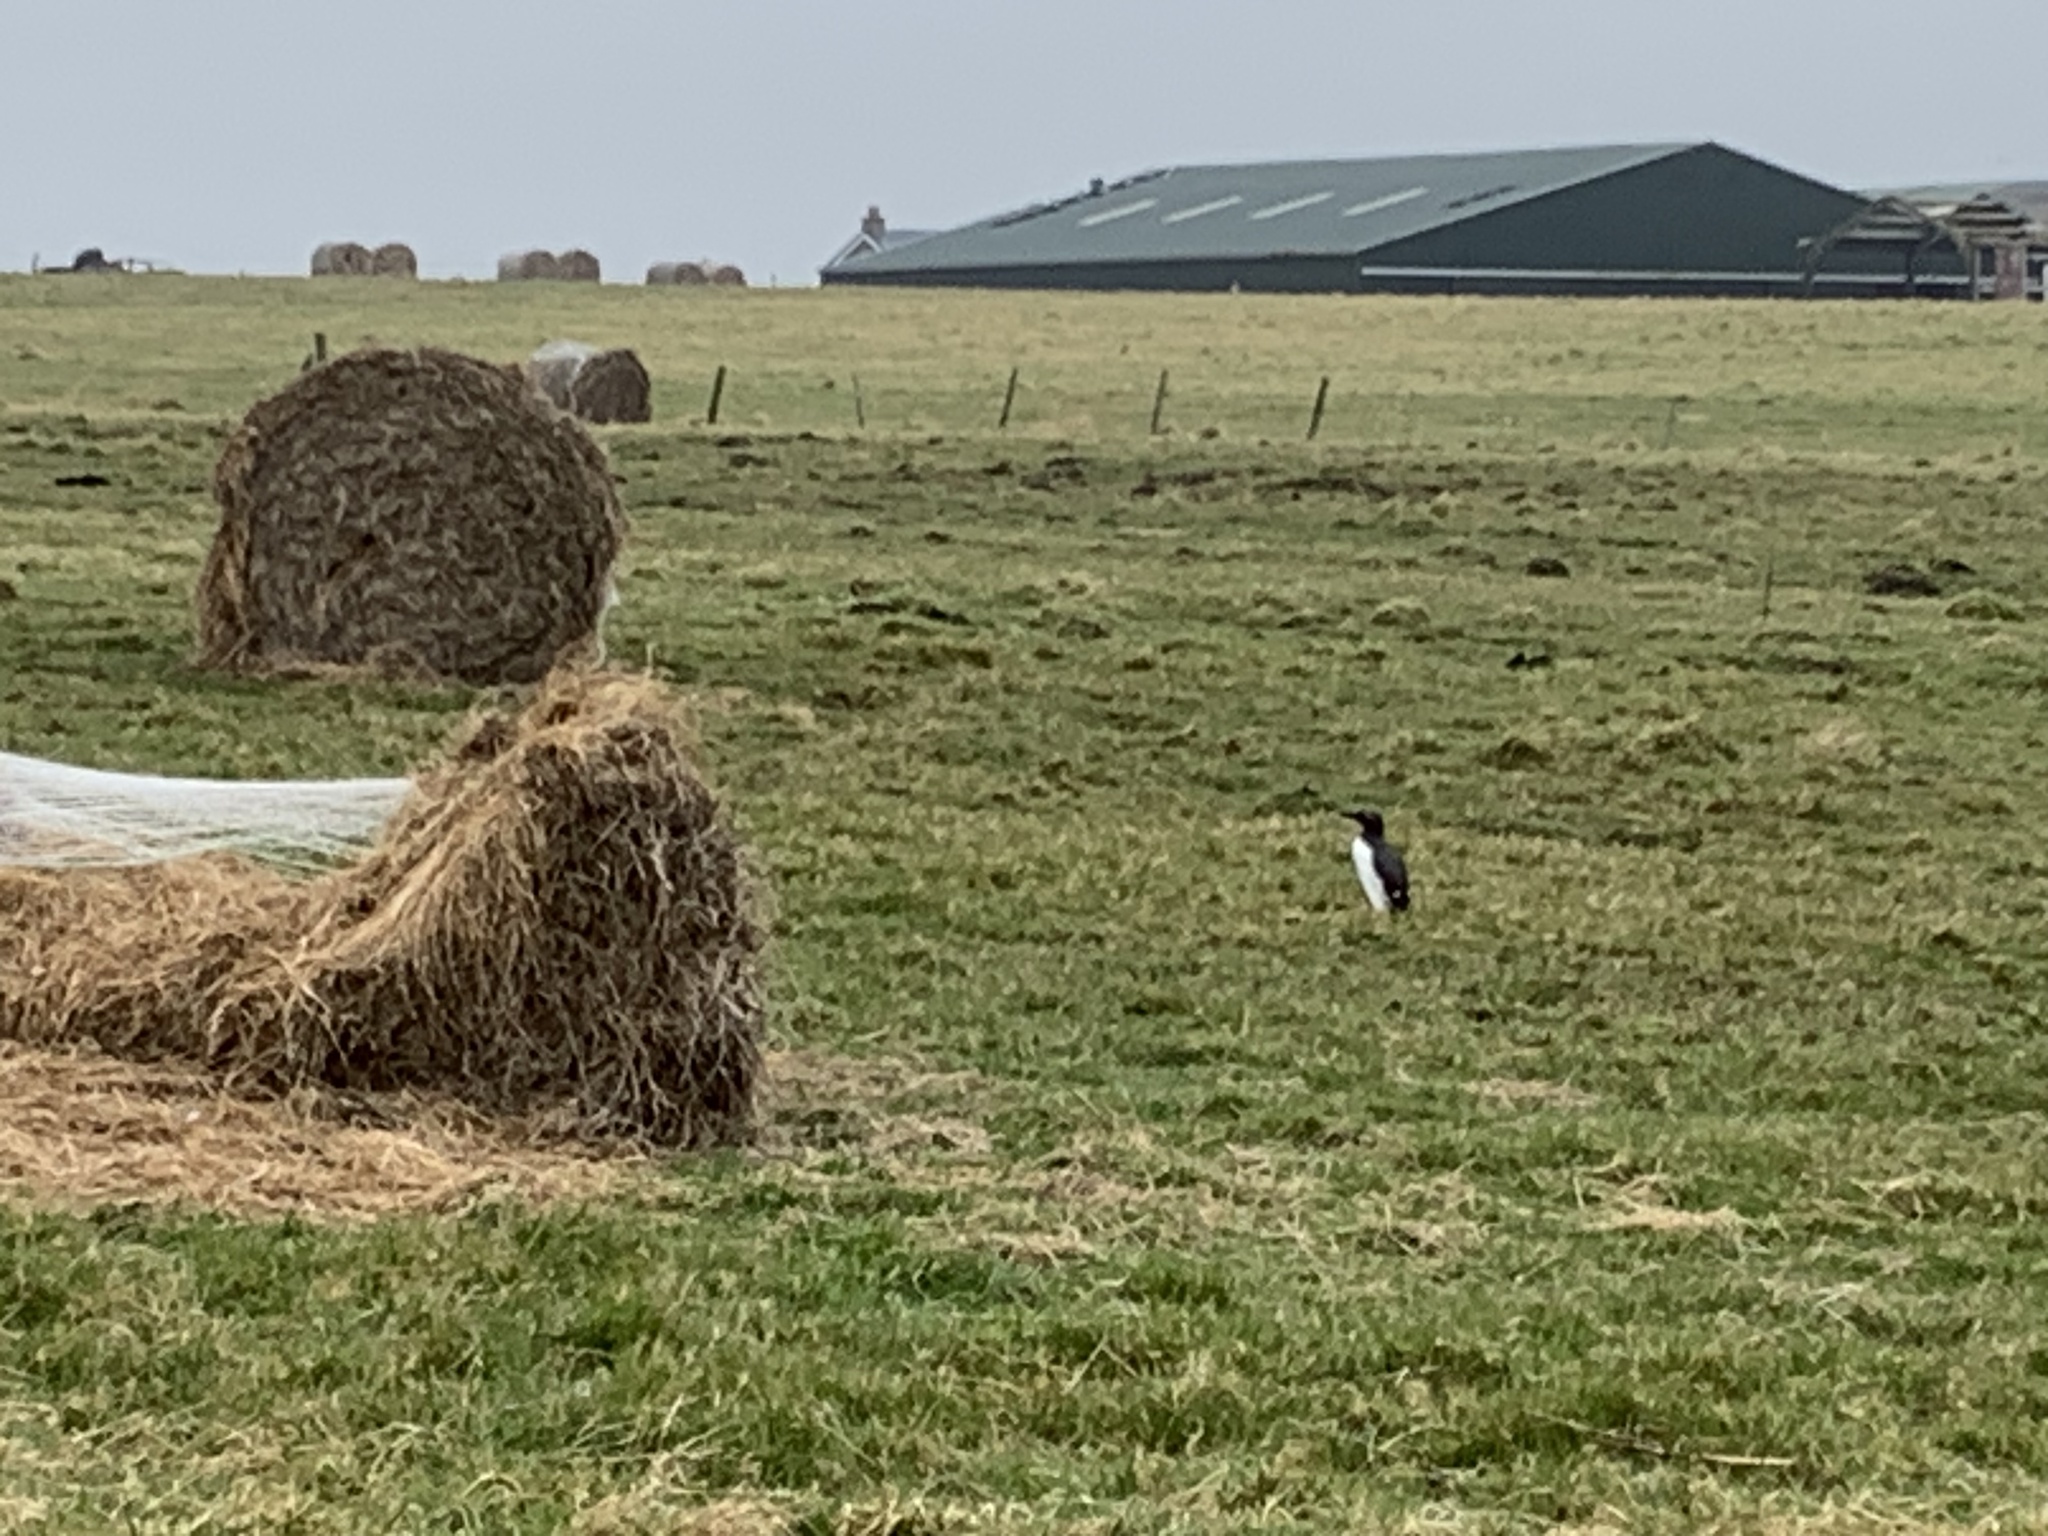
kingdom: Animalia
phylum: Chordata
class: Aves
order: Charadriiformes
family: Alcidae
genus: Uria
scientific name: Uria aalge
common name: Common murre
